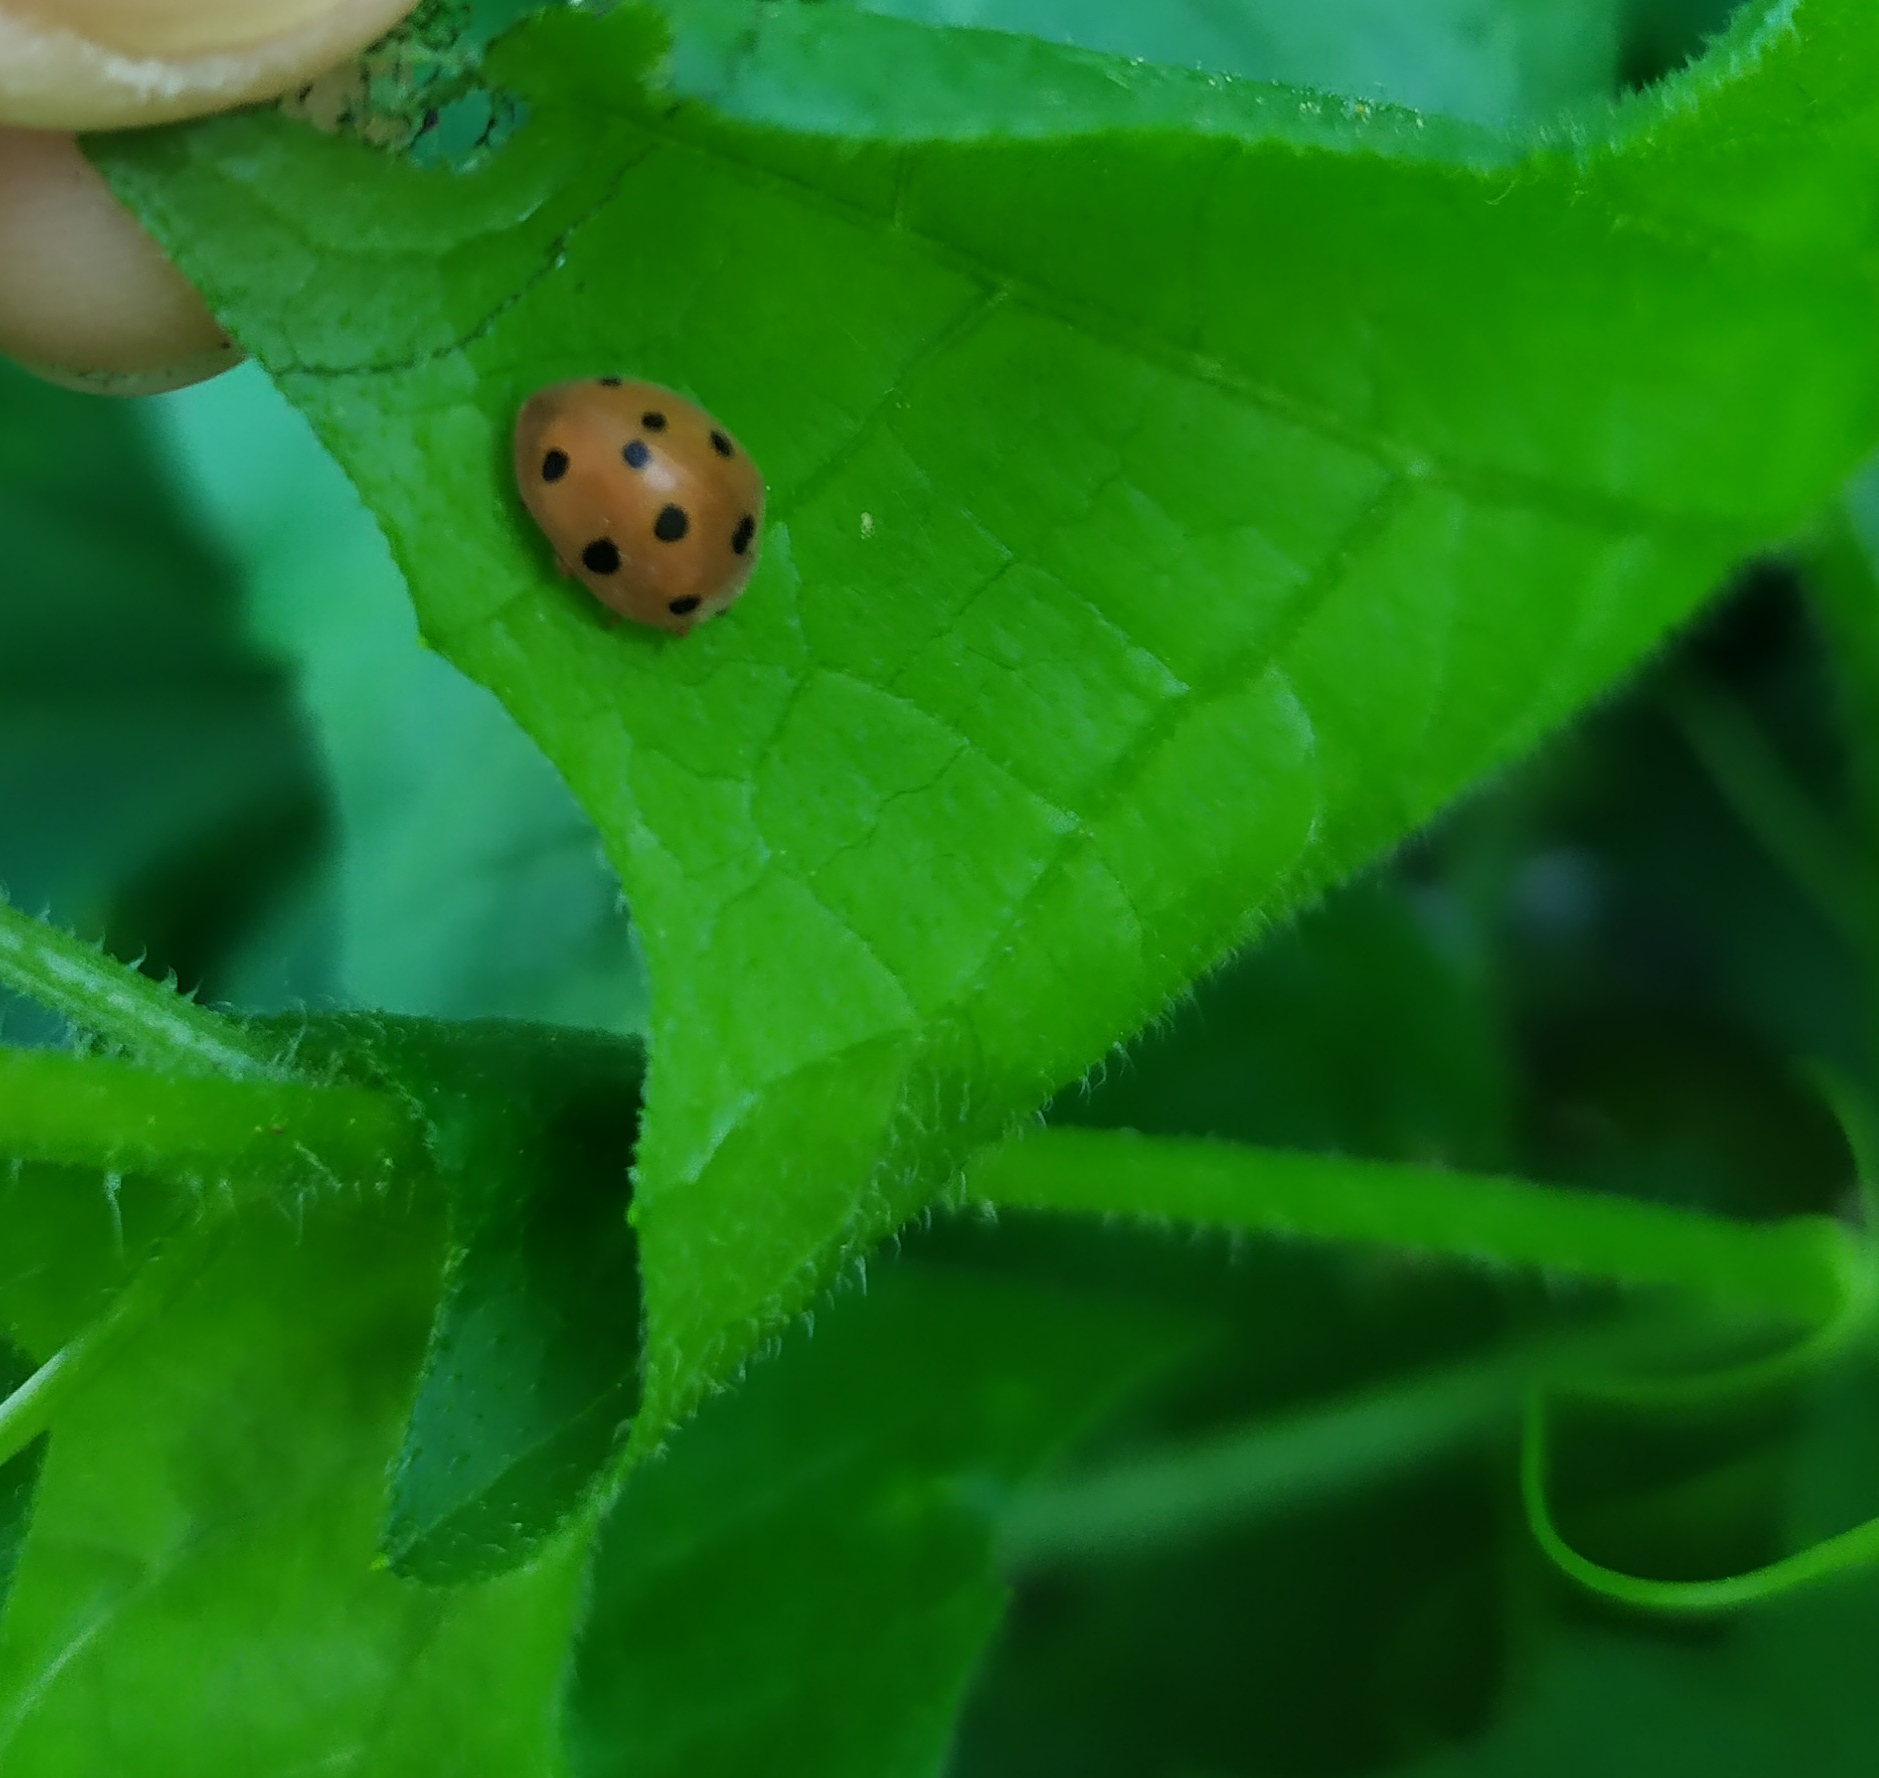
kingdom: Animalia
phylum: Arthropoda
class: Insecta
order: Coleoptera
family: Coccinellidae
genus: Henosepilachna
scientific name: Henosepilachna argus
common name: Bryony ladybird
